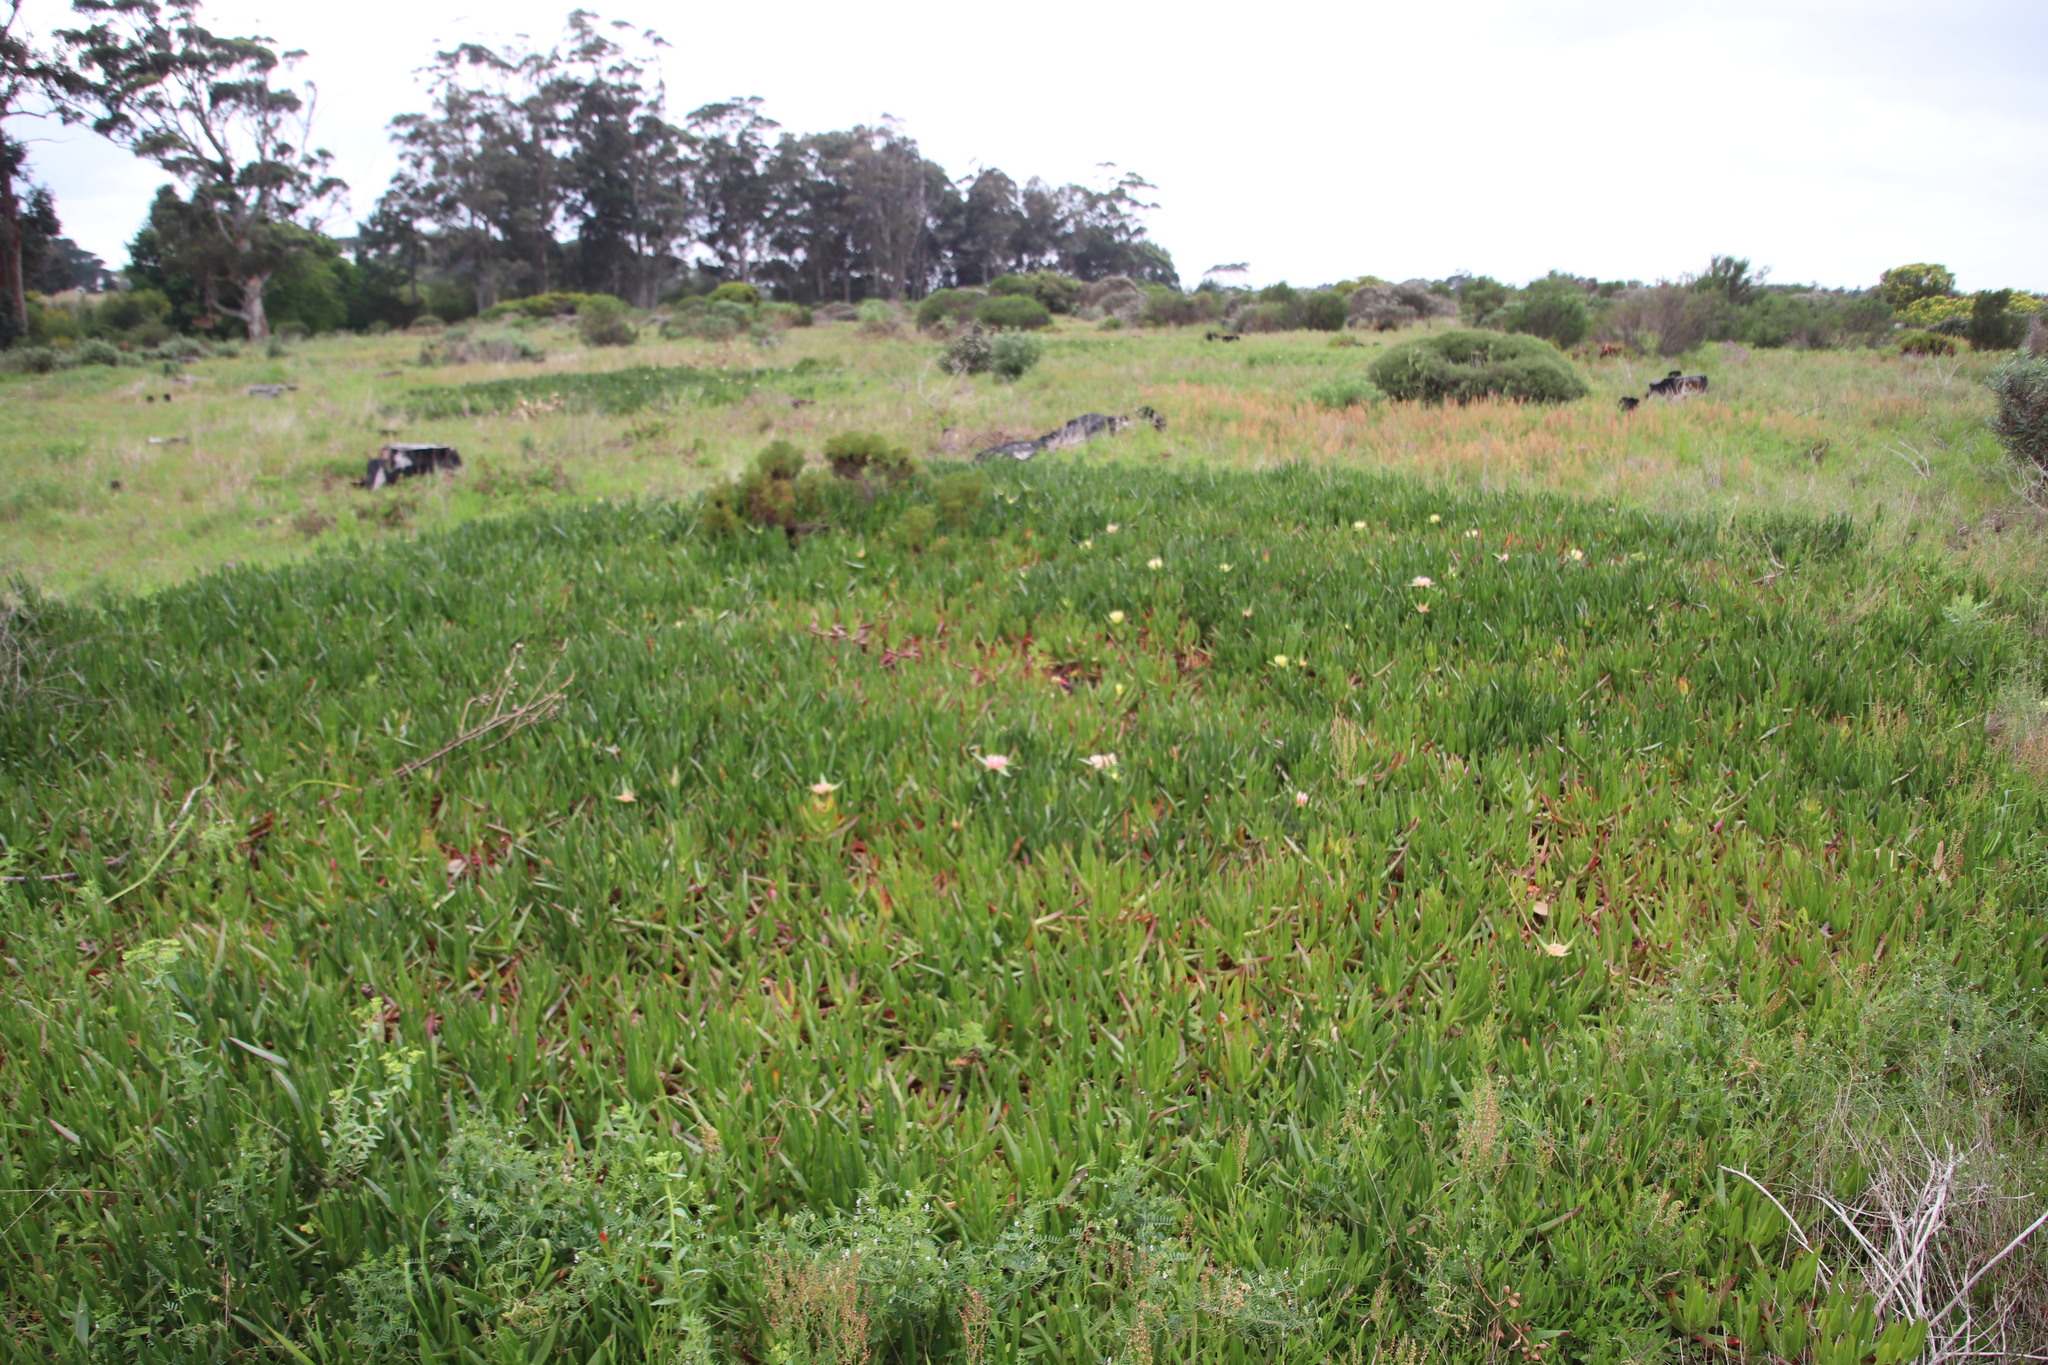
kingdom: Plantae
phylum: Tracheophyta
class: Magnoliopsida
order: Caryophyllales
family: Aizoaceae
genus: Carpobrotus
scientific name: Carpobrotus edulis
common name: Hottentot-fig
